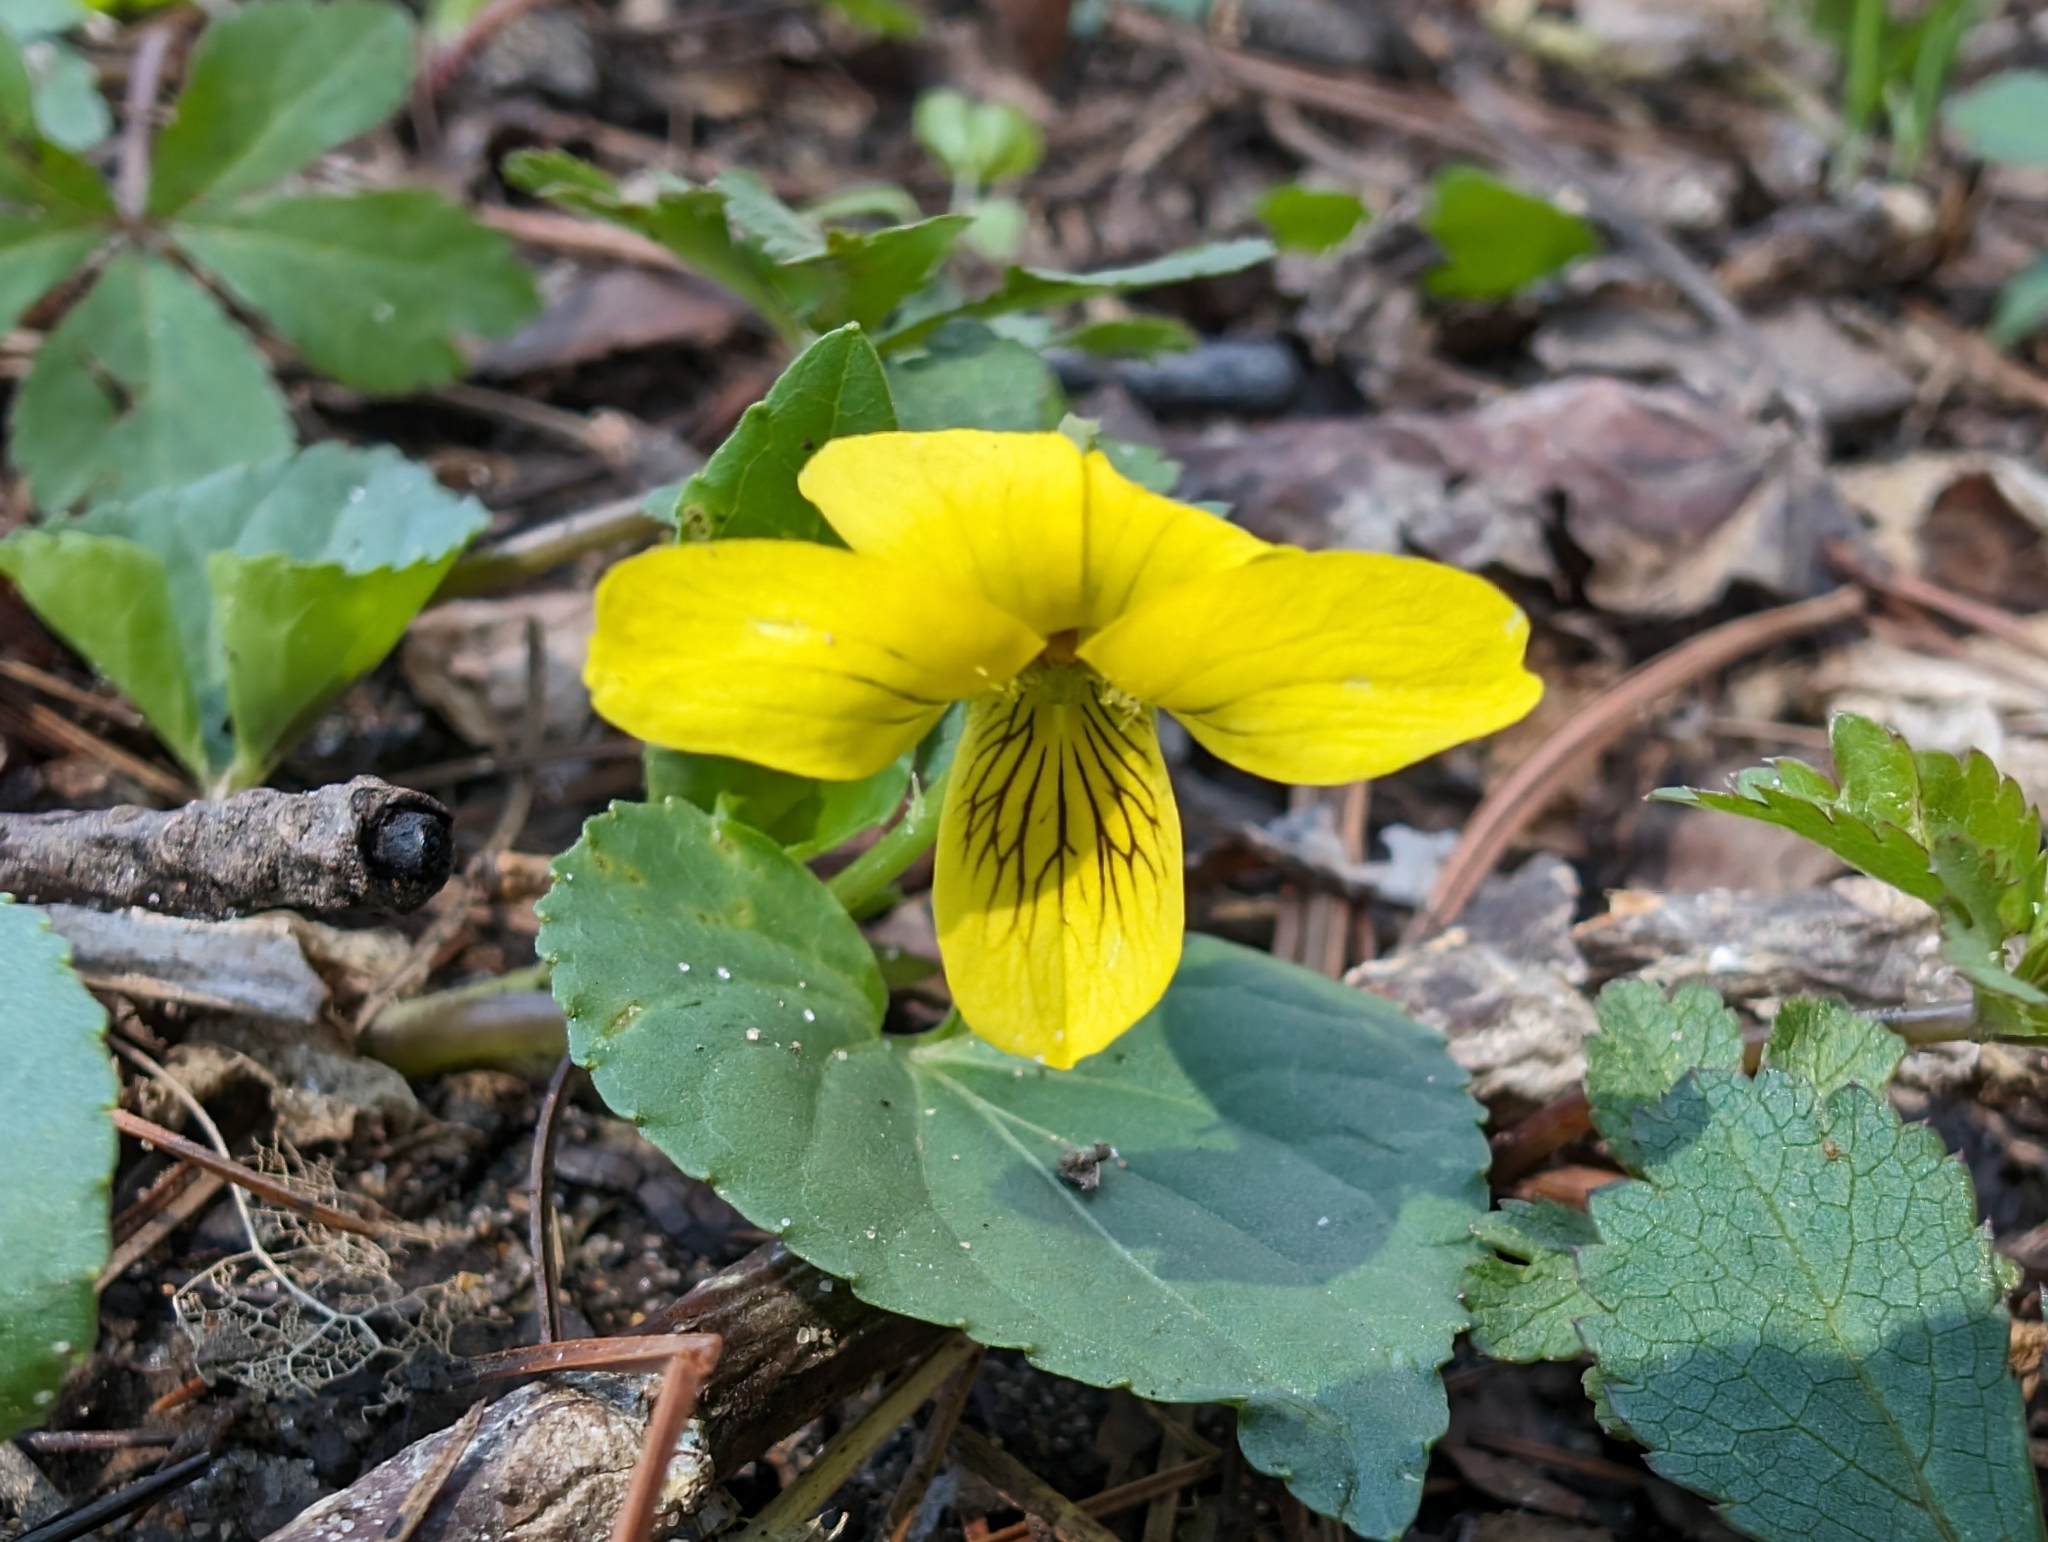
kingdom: Plantae
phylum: Tracheophyta
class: Magnoliopsida
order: Malpighiales
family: Violaceae
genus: Viola
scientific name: Viola eriocarpa
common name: Smooth yellow violet
